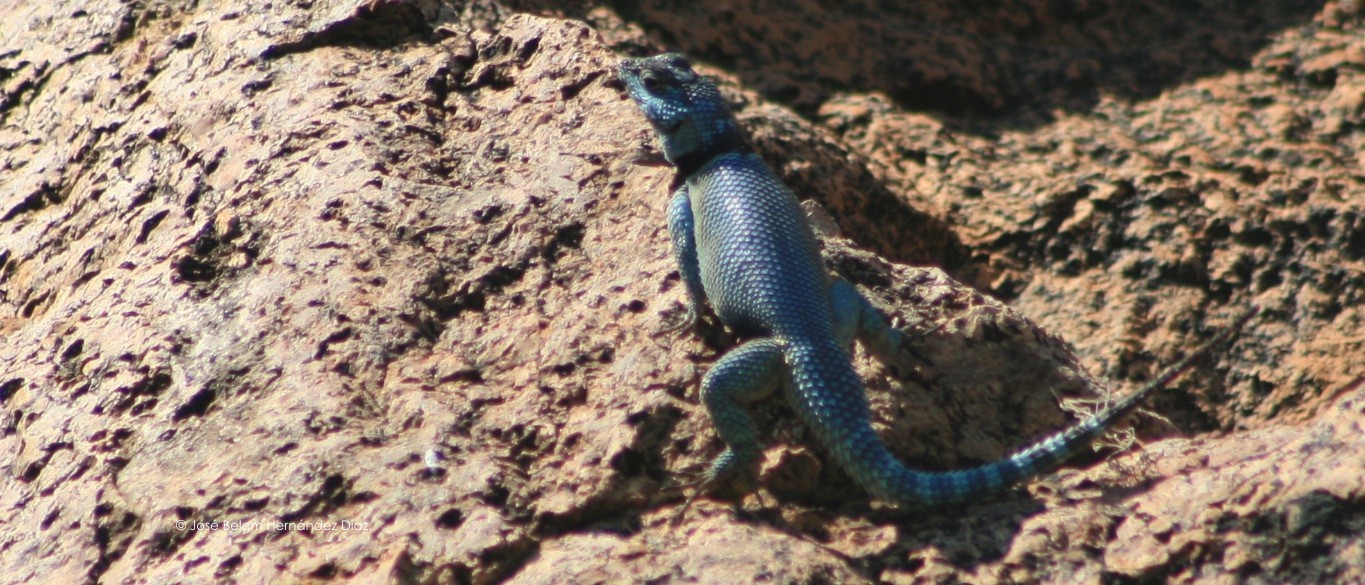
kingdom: Animalia
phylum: Chordata
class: Squamata
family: Phrynosomatidae
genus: Sceloporus
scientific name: Sceloporus minor
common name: Minor lizard
